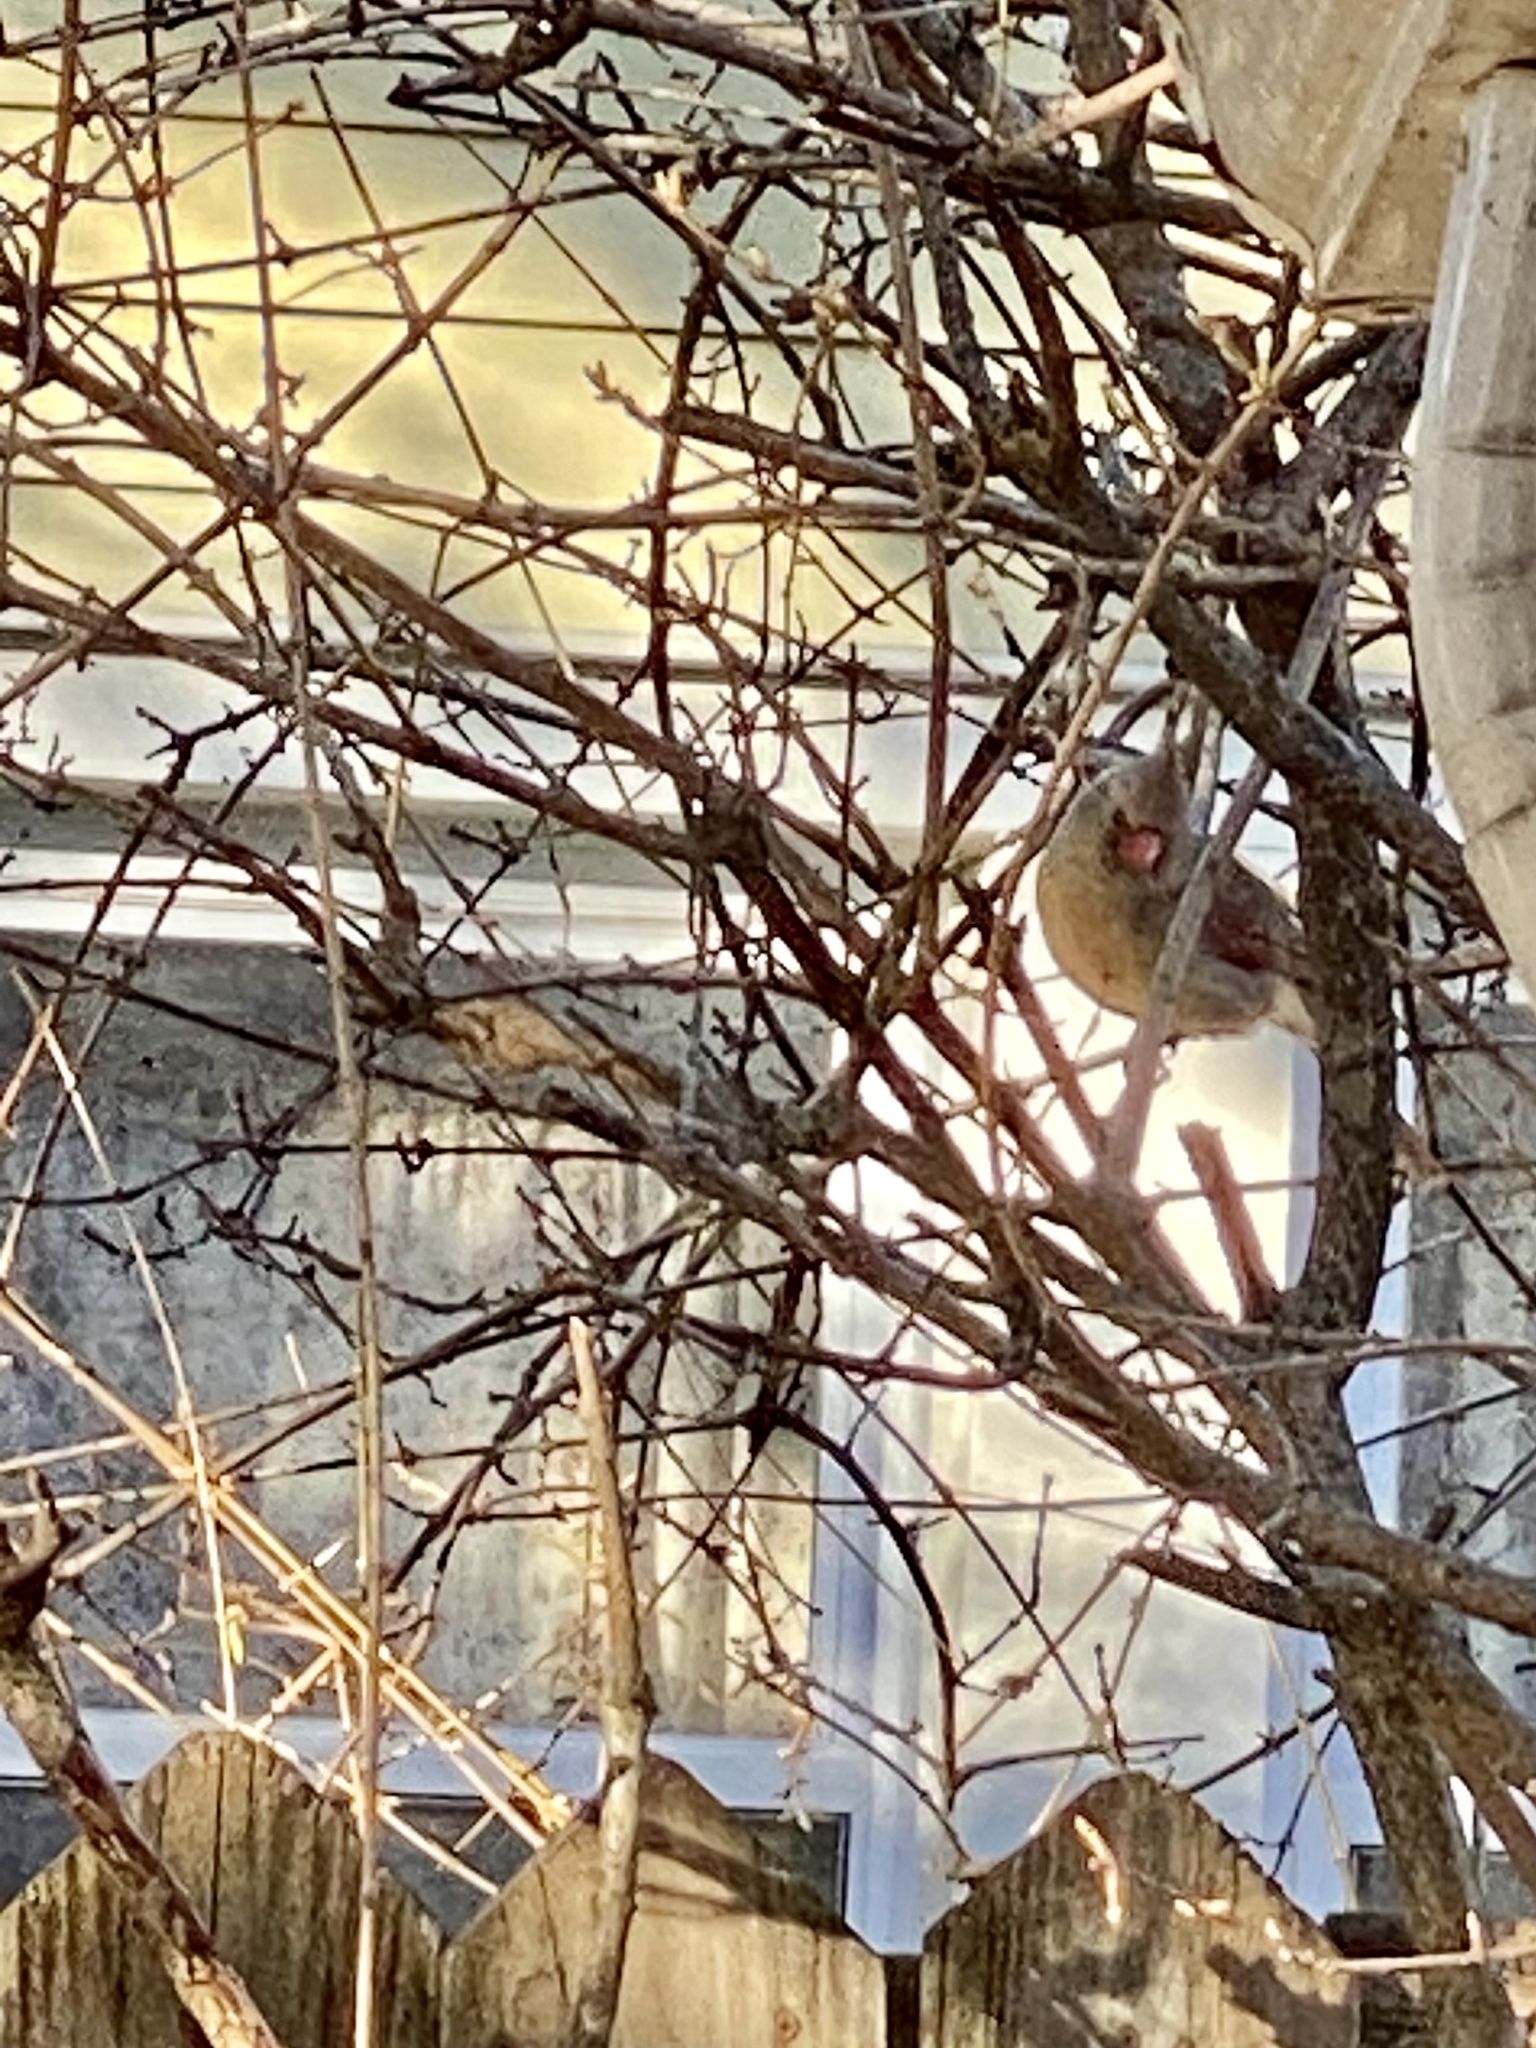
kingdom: Animalia
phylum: Chordata
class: Aves
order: Passeriformes
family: Cardinalidae
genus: Cardinalis
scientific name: Cardinalis cardinalis
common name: Northern cardinal
